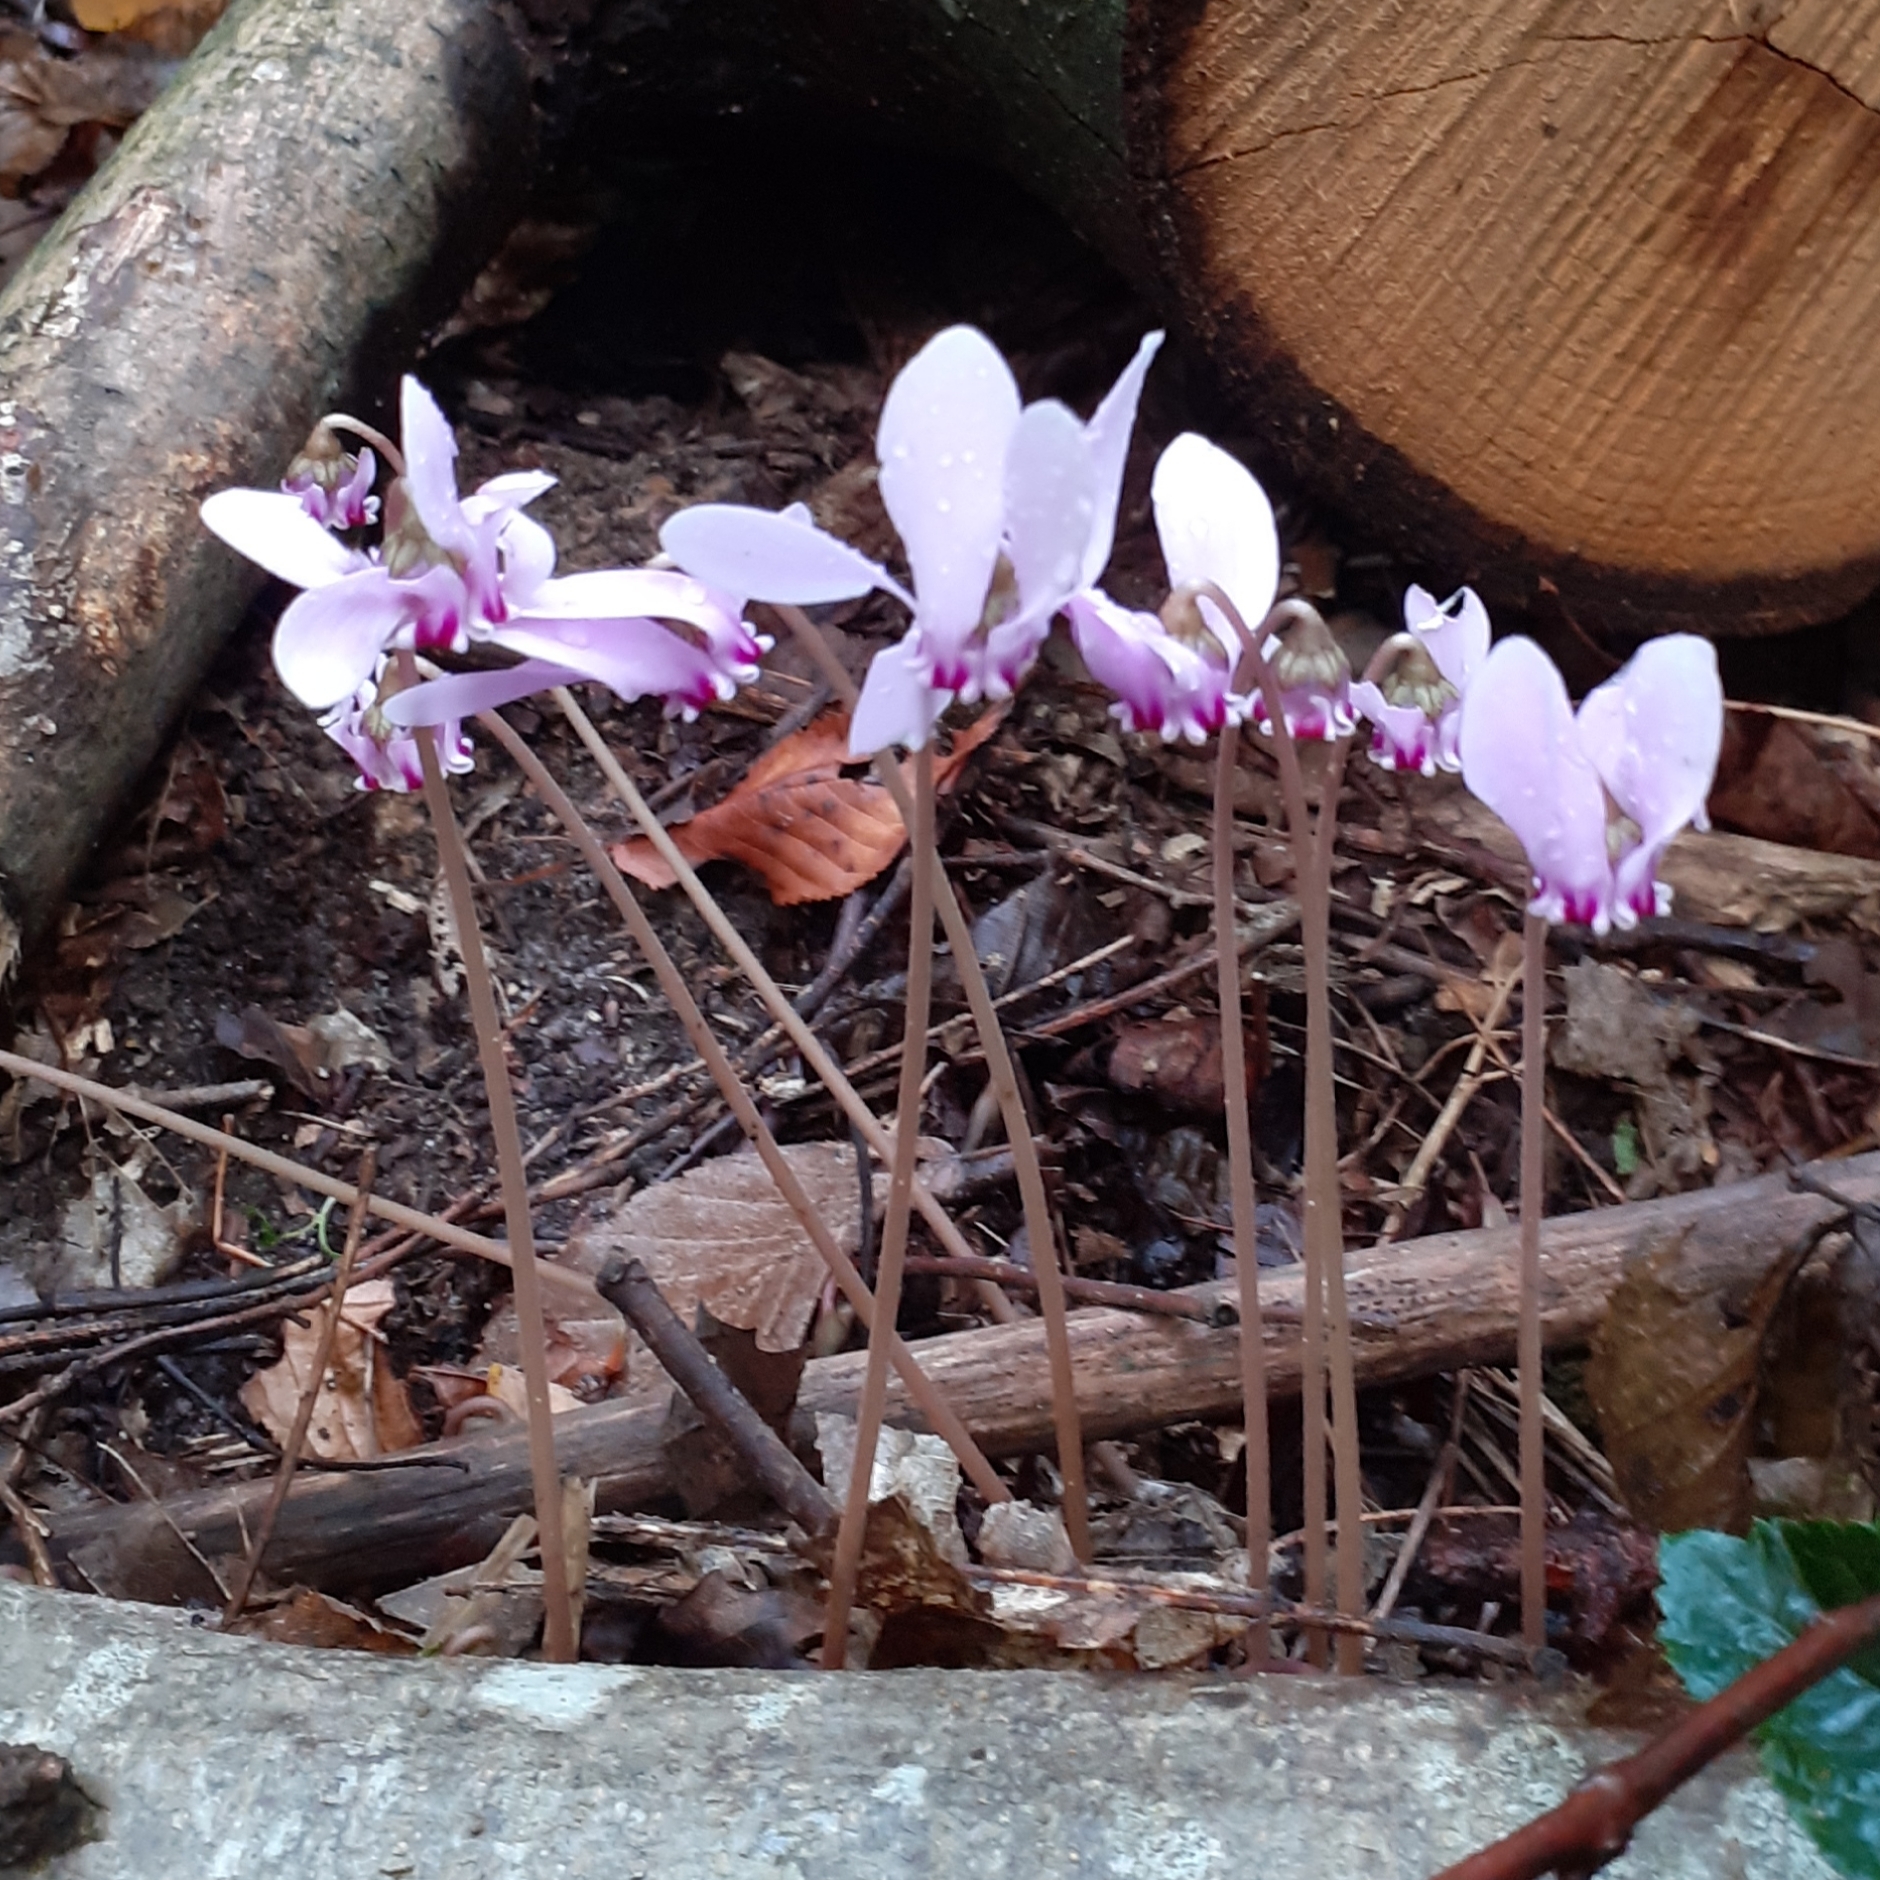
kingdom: Plantae
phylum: Tracheophyta
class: Magnoliopsida
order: Ericales
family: Primulaceae
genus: Cyclamen
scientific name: Cyclamen hederifolium
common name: Sowbread
